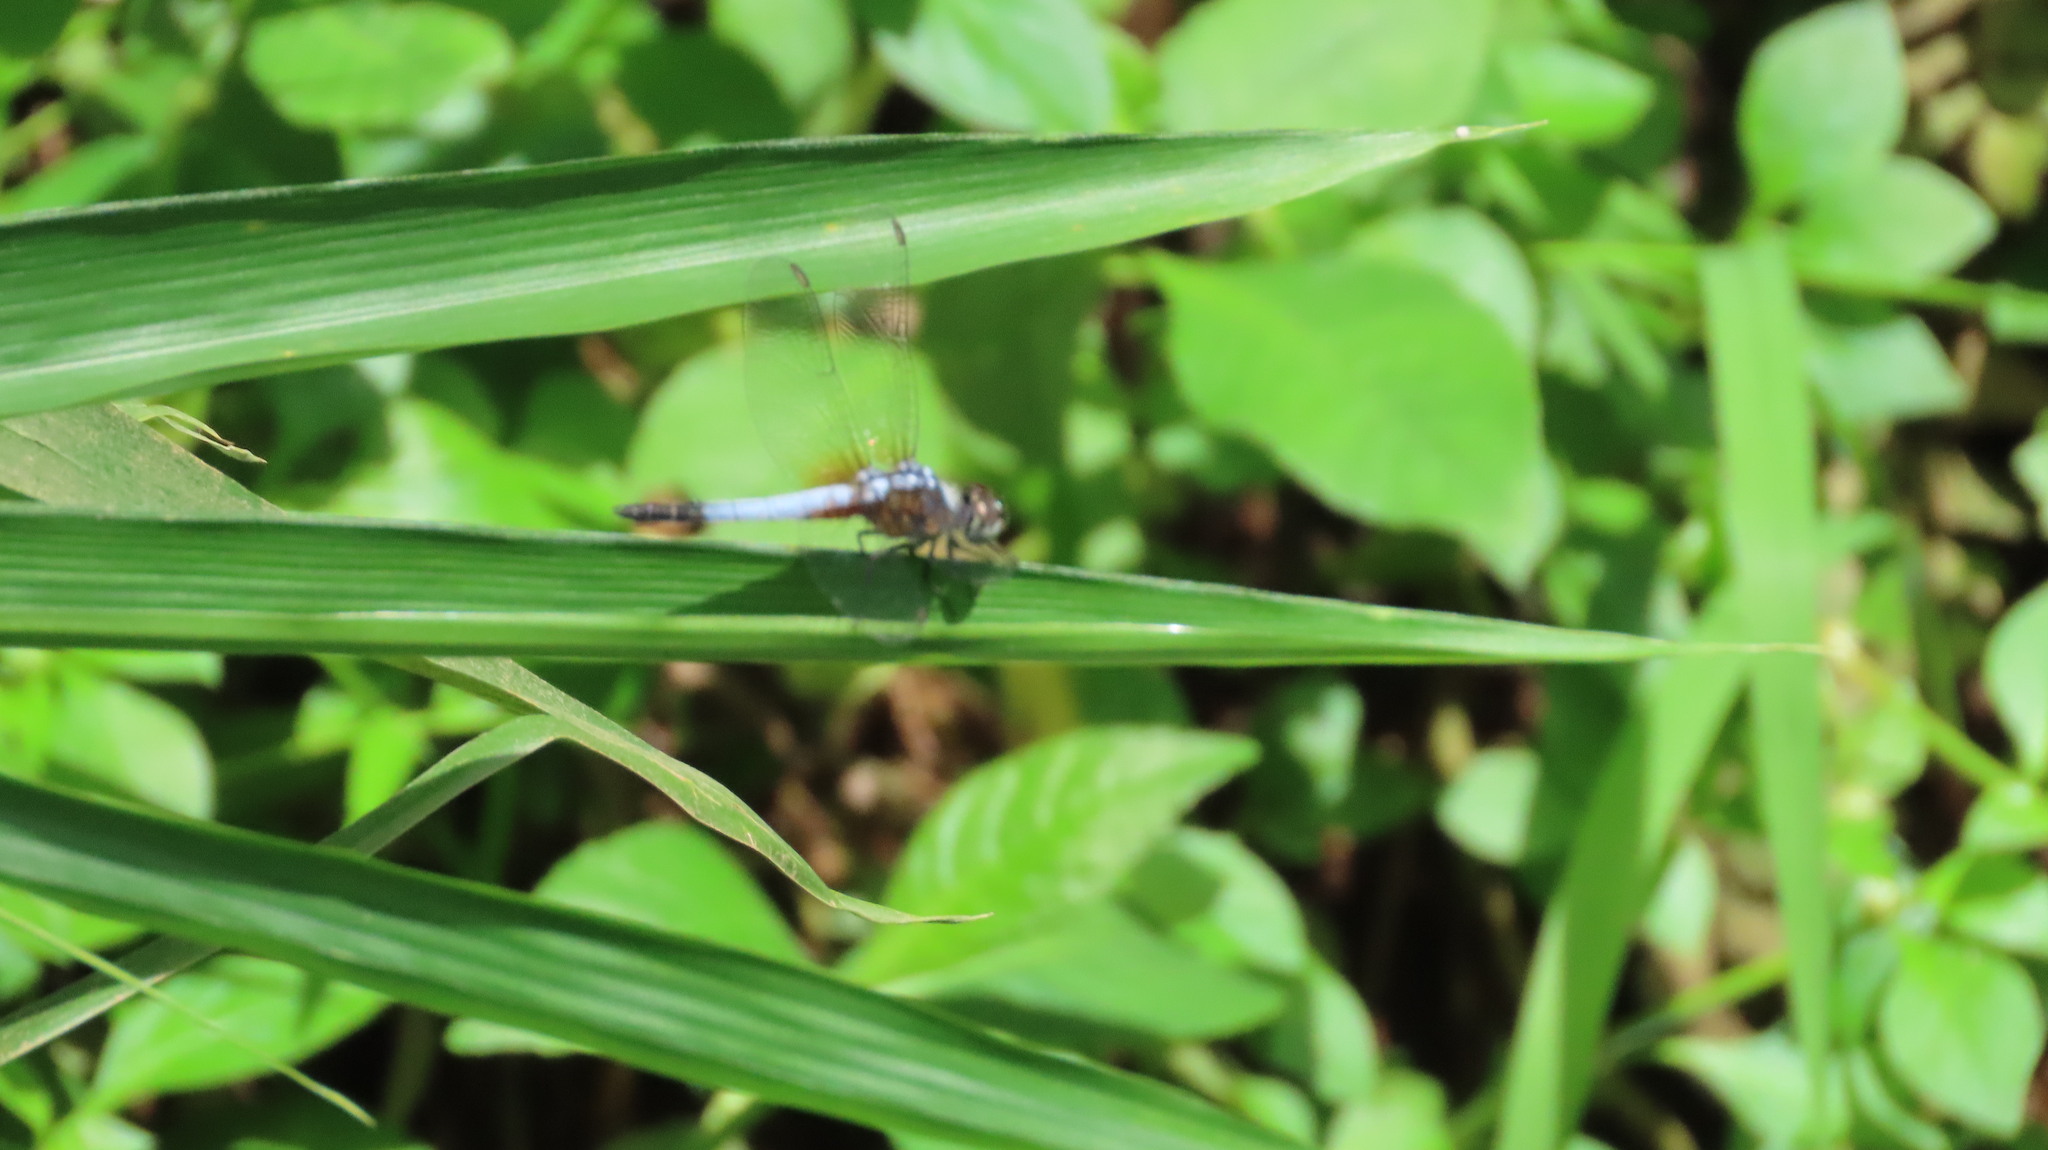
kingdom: Animalia
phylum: Arthropoda
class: Insecta
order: Odonata
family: Libellulidae
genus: Brachydiplax
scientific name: Brachydiplax chalybea
